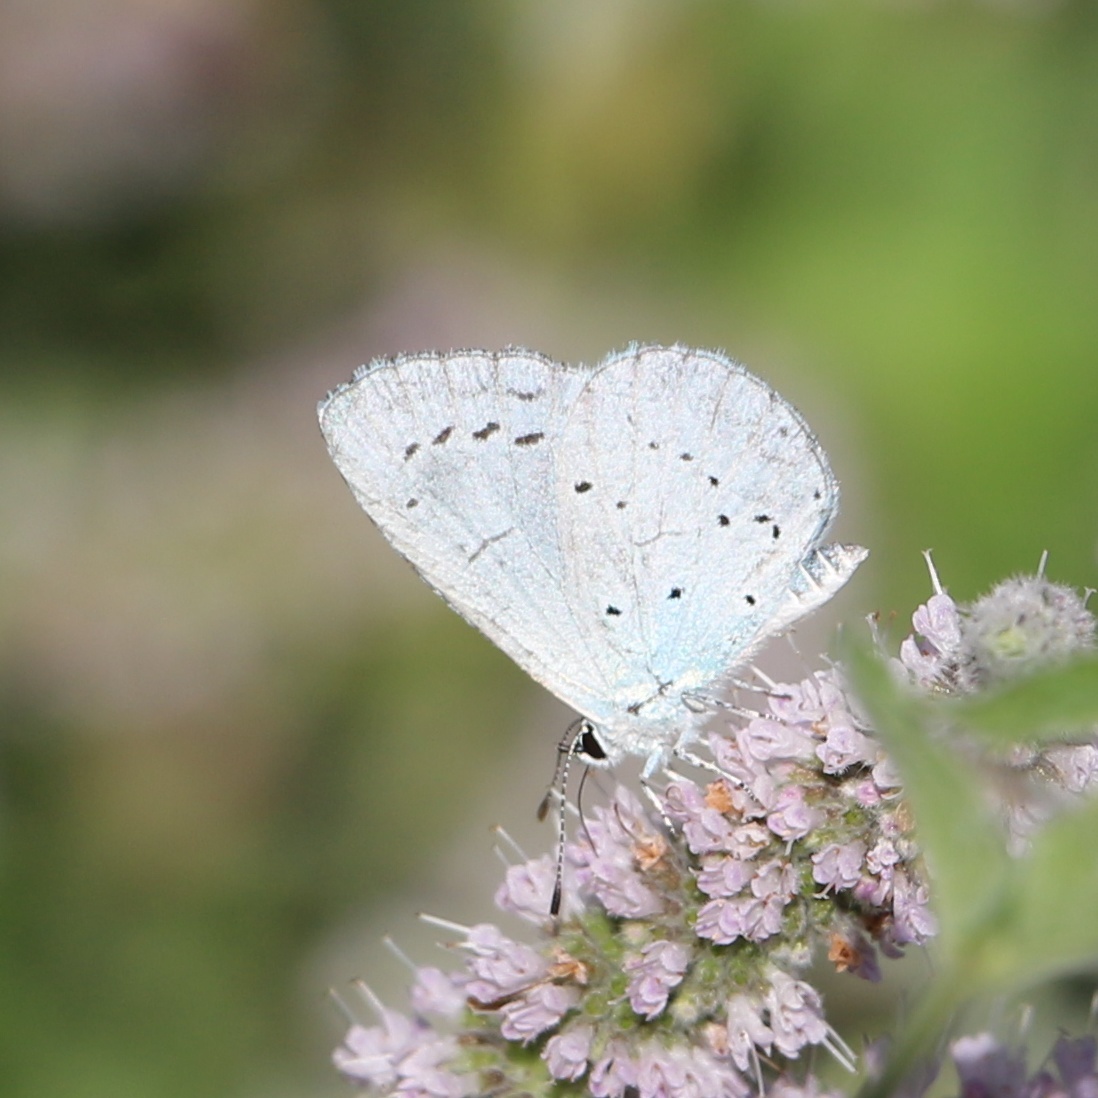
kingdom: Animalia
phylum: Arthropoda
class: Insecta
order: Lepidoptera
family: Lycaenidae
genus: Celastrina
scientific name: Celastrina argiolus
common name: Holly blue
